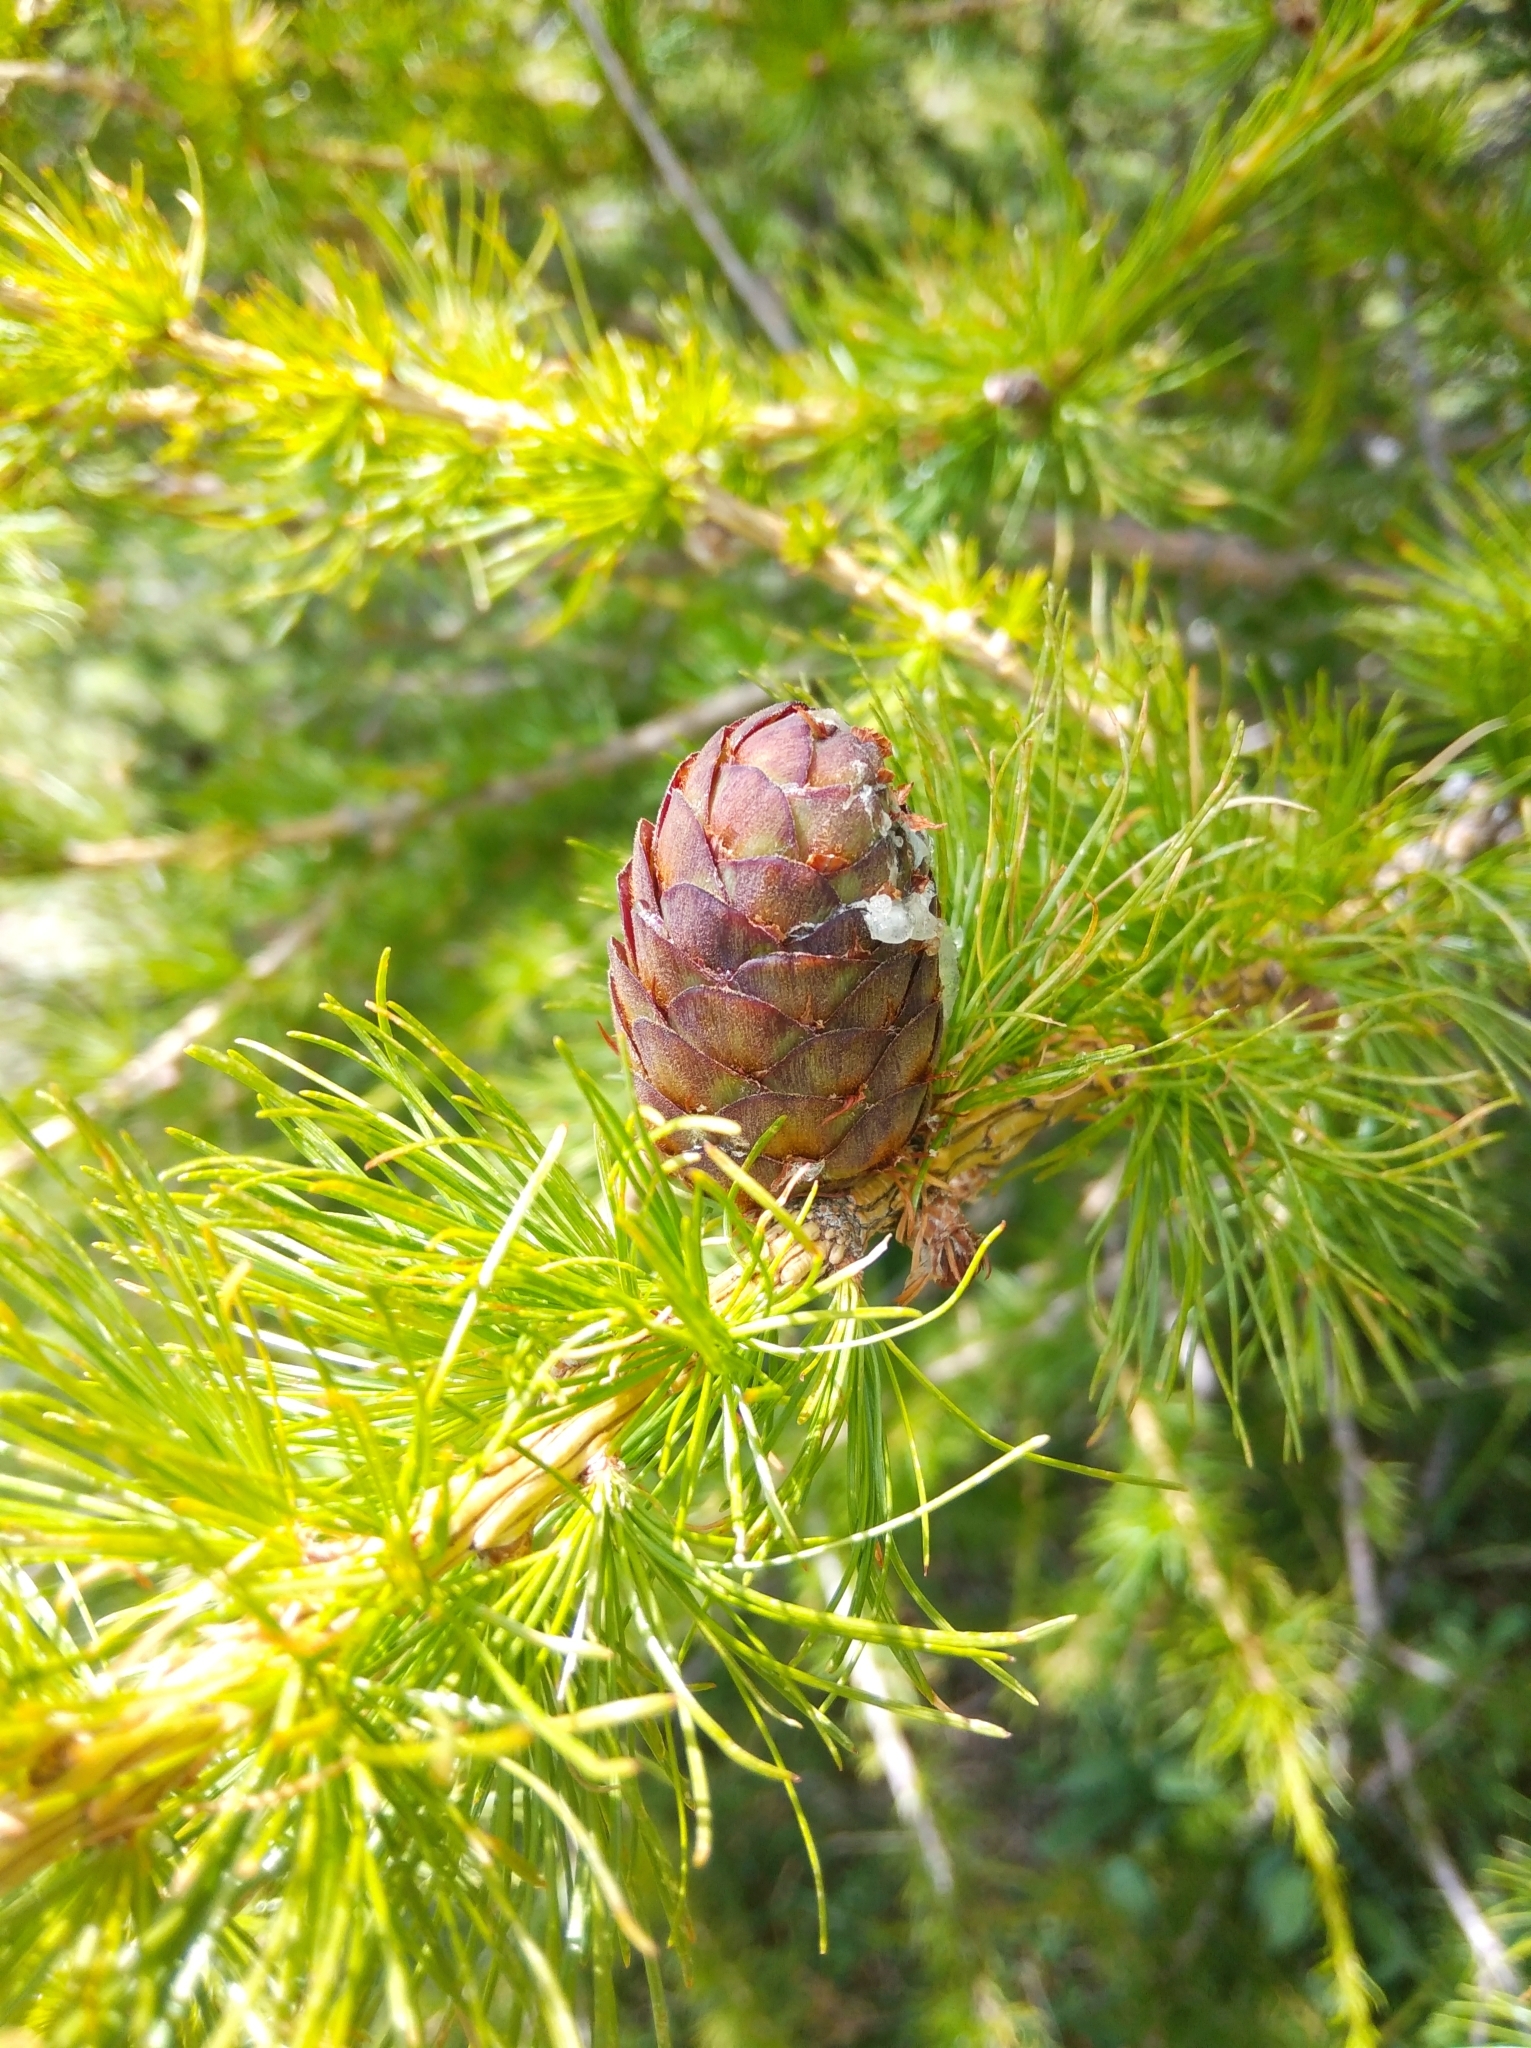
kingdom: Plantae
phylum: Tracheophyta
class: Pinopsida
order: Pinales
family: Pinaceae
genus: Larix
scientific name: Larix decidua
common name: European larch
